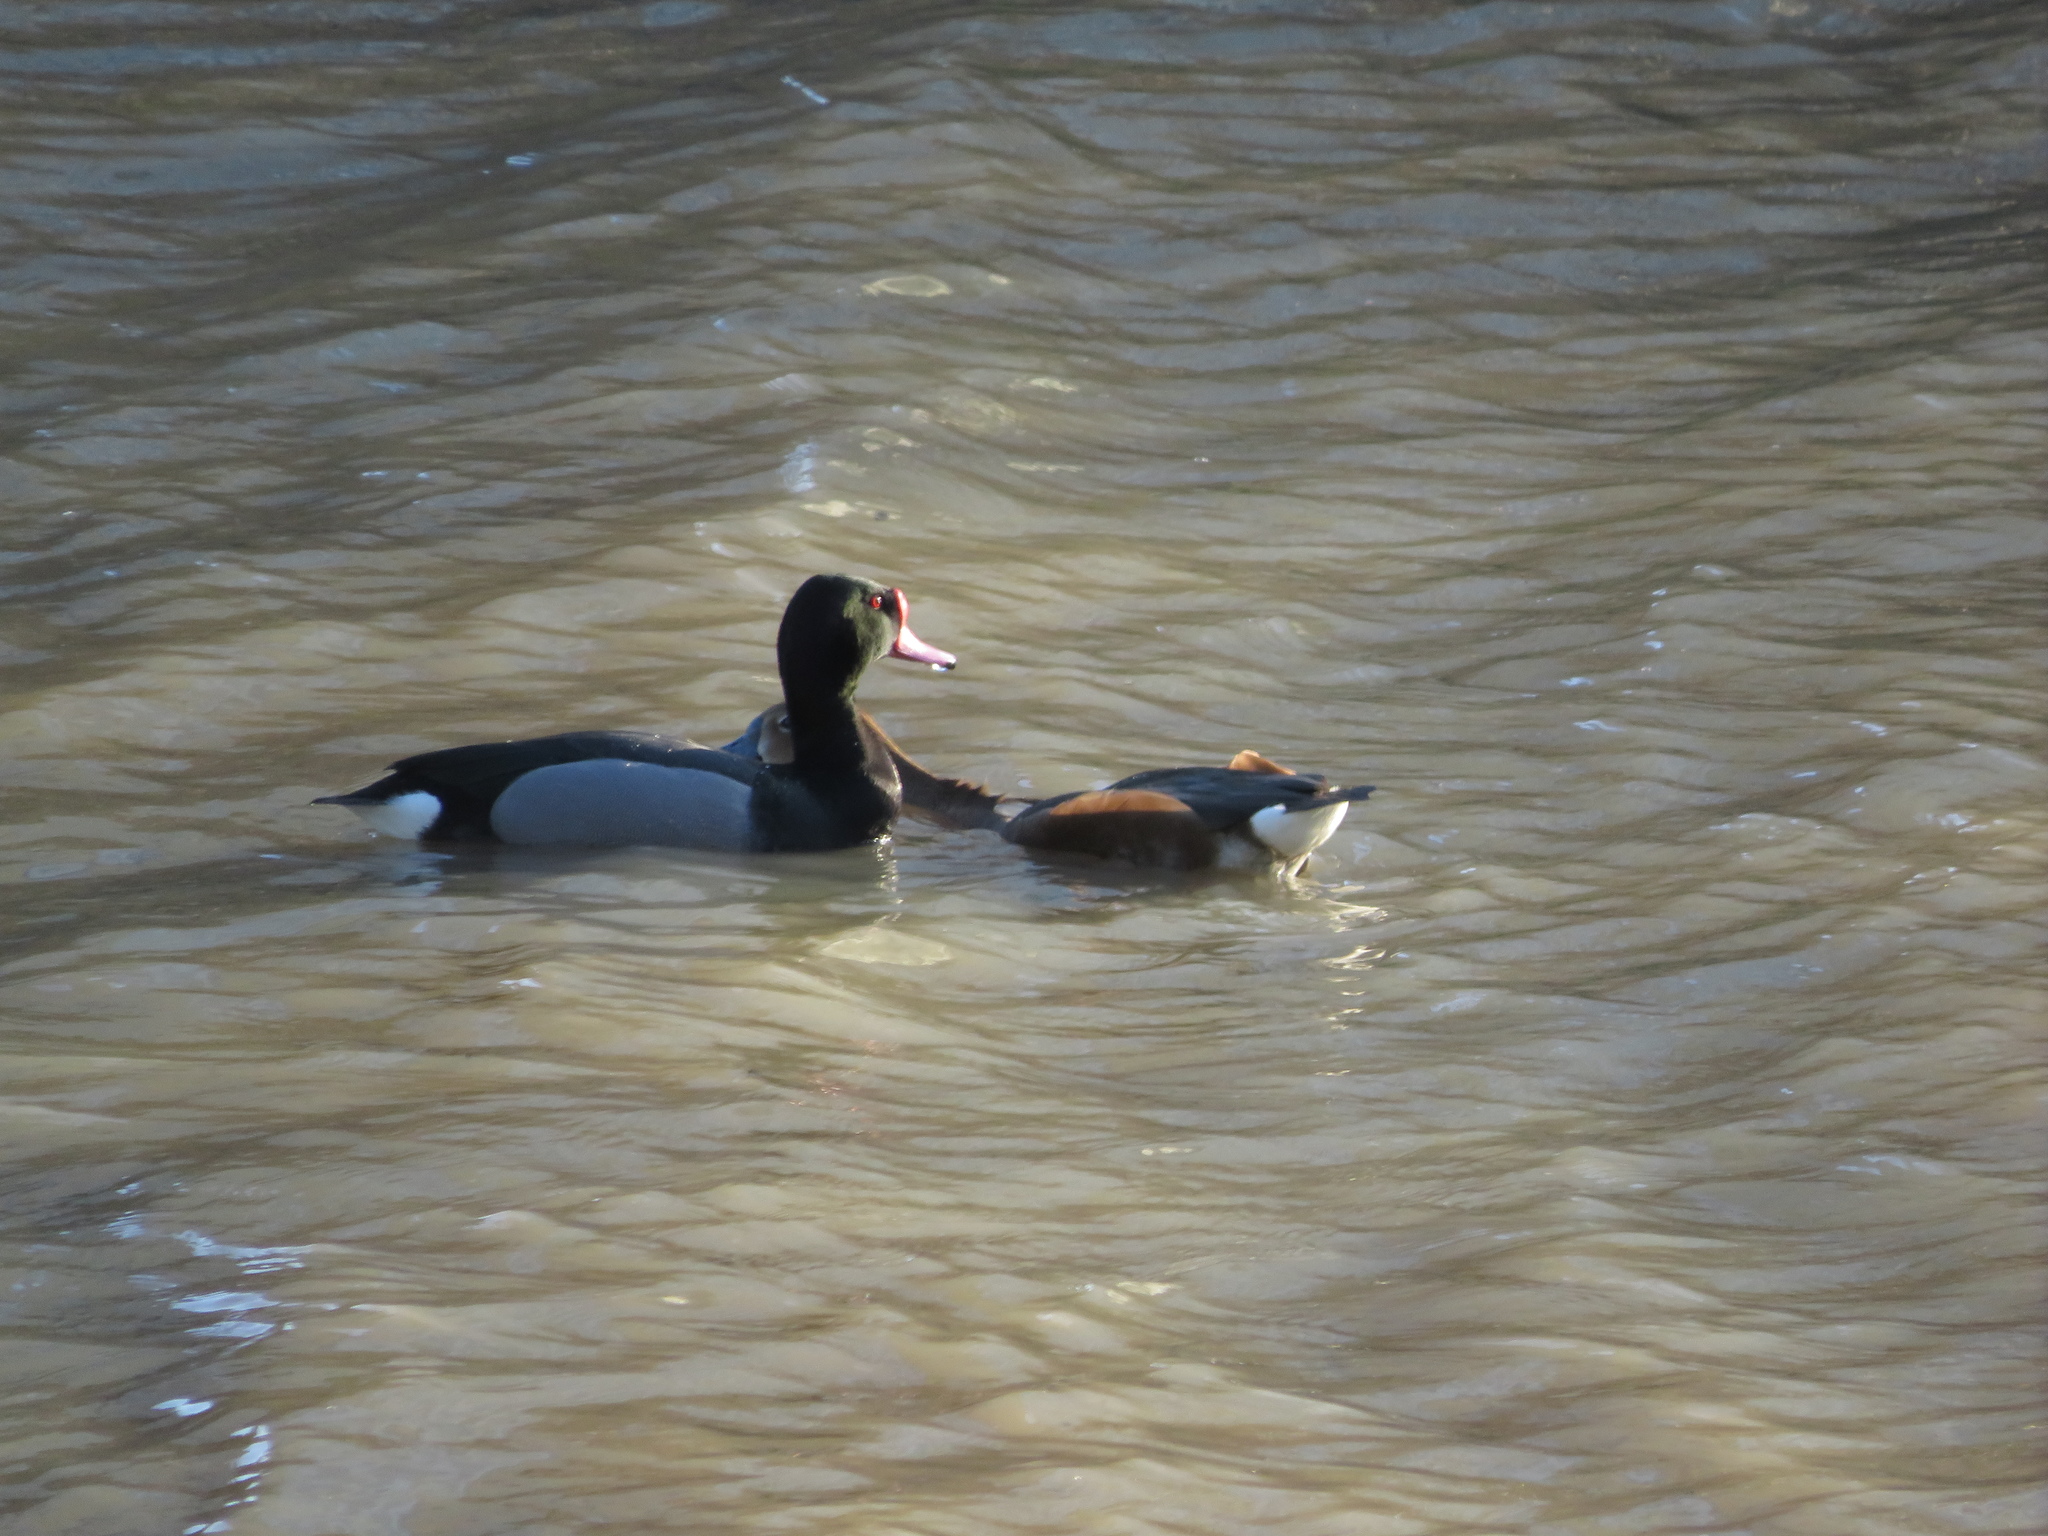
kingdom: Animalia
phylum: Chordata
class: Aves
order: Anseriformes
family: Anatidae
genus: Netta
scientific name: Netta peposaca
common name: Rosy-billed pochard
